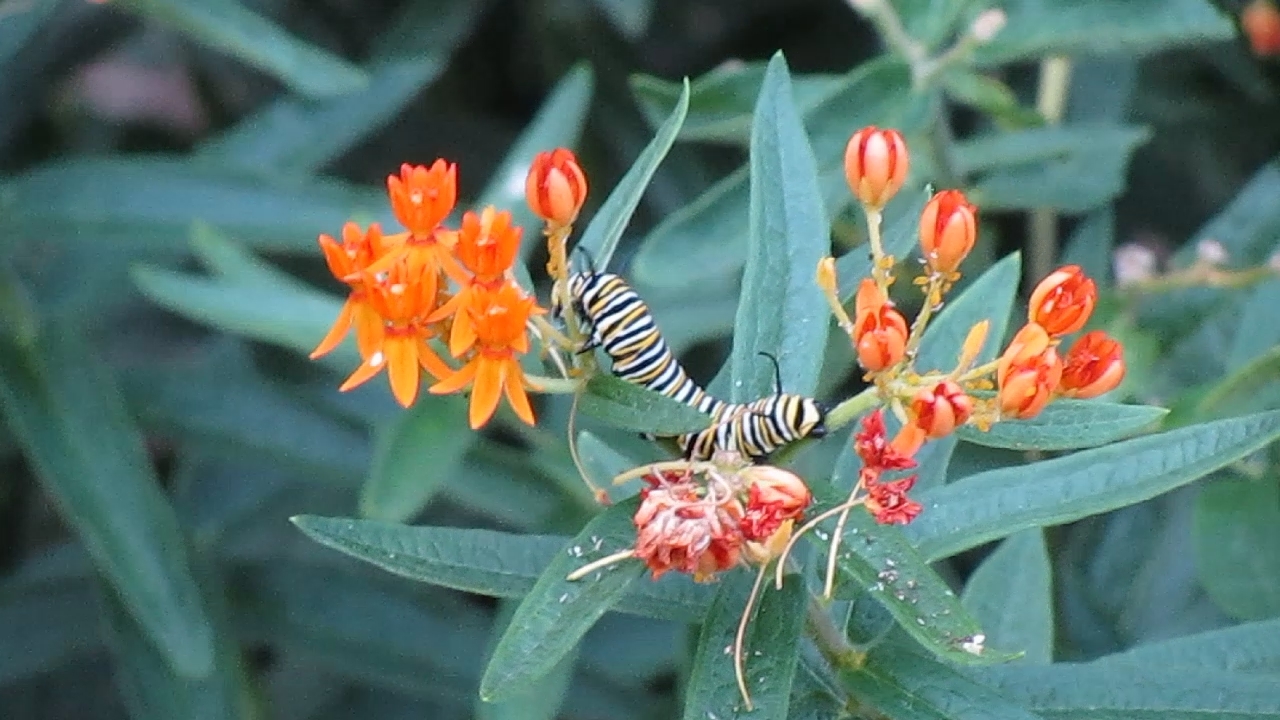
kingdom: Animalia
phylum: Arthropoda
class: Insecta
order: Lepidoptera
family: Nymphalidae
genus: Danaus
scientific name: Danaus plexippus
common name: Monarch
